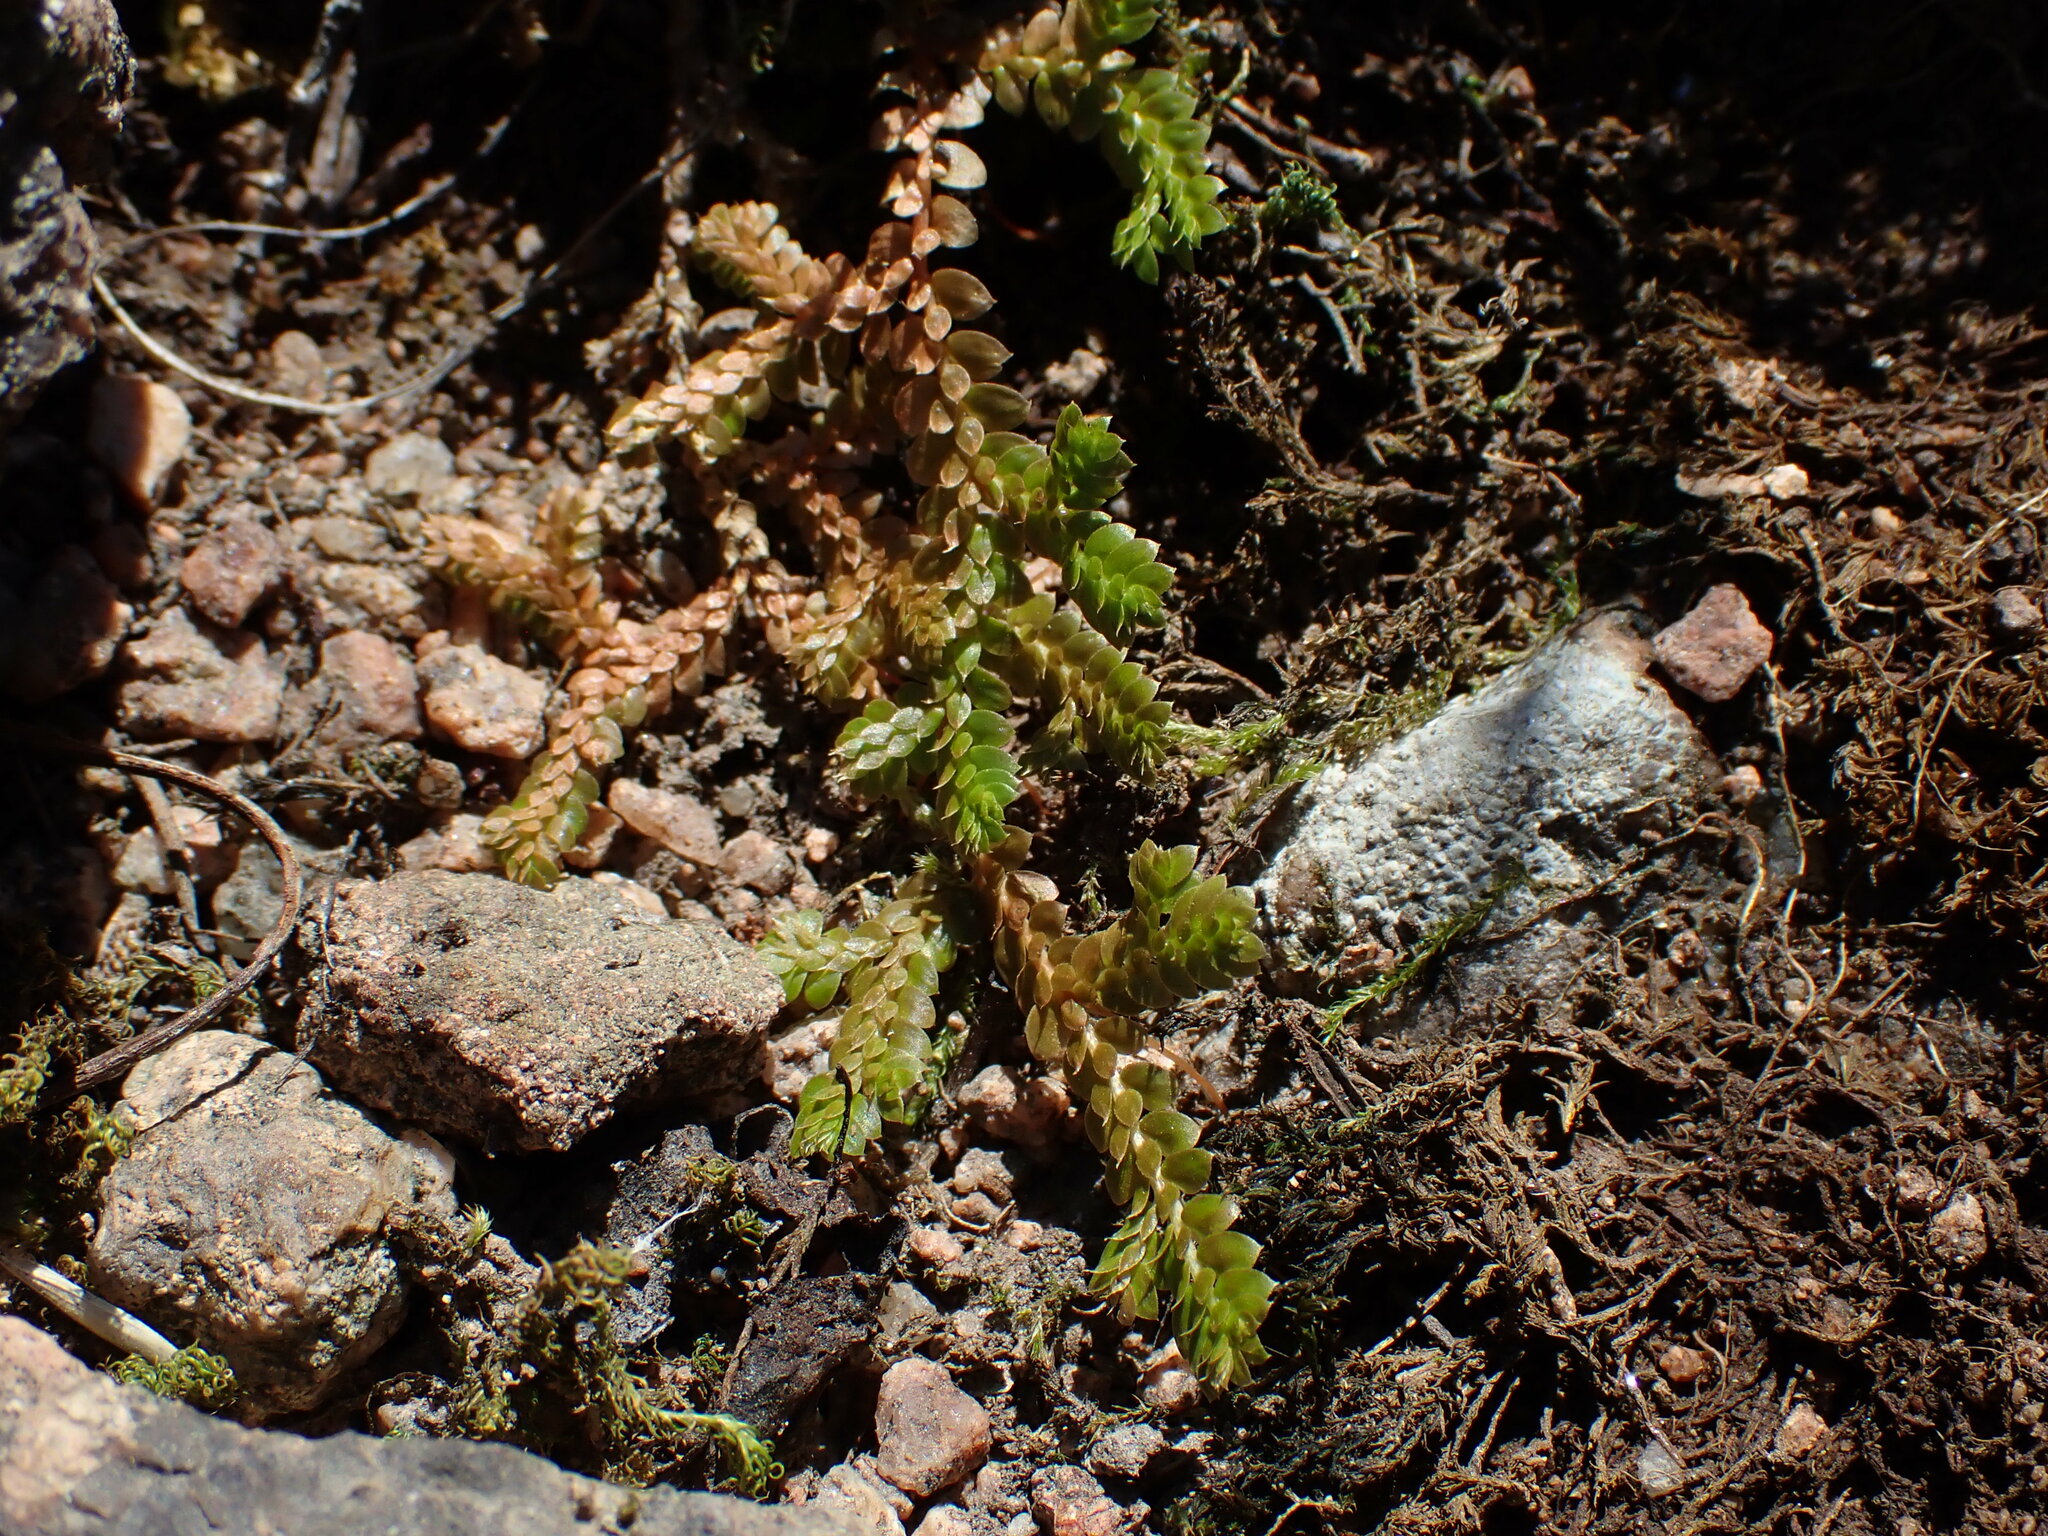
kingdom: Plantae
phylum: Tracheophyta
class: Lycopodiopsida
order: Selaginellales
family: Selaginellaceae
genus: Selaginella
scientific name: Selaginella denticulata
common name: Toothed-leaved clubmoss
